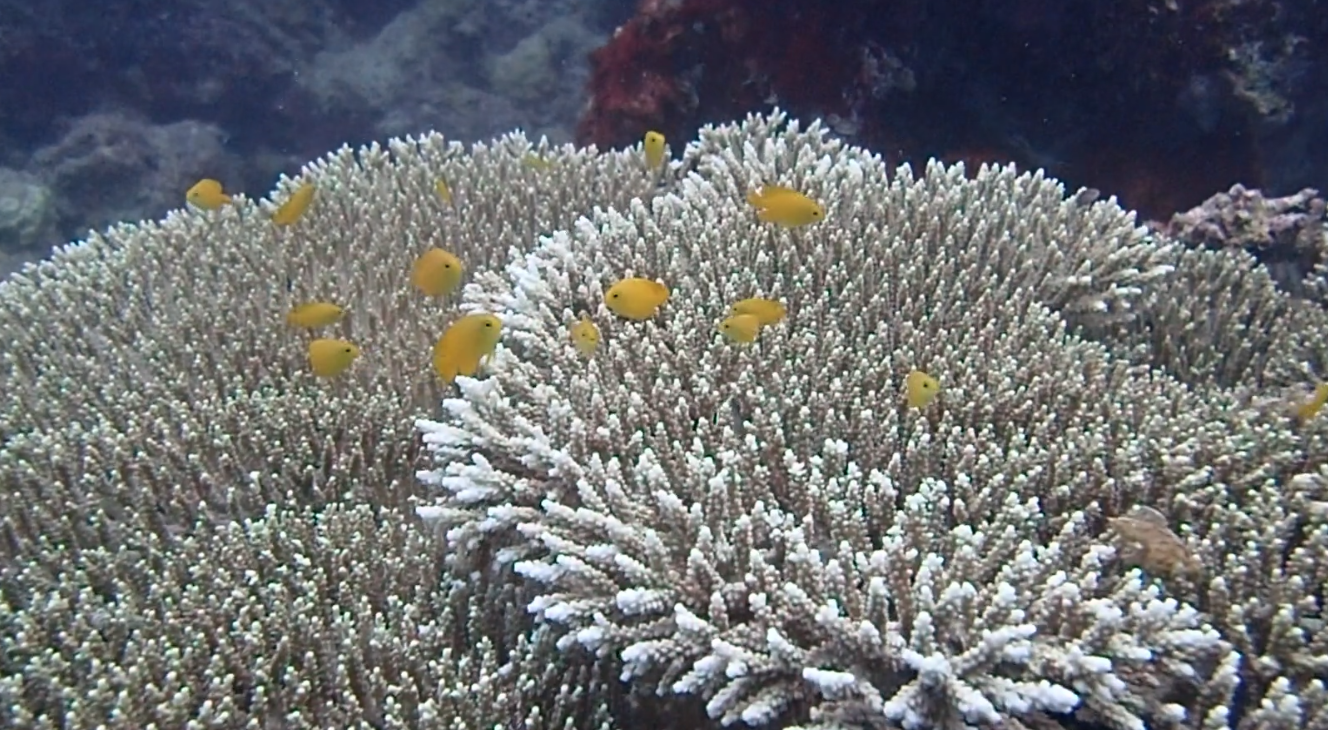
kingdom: Animalia
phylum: Chordata
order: Perciformes
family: Pomacentridae
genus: Pomacentrus
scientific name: Pomacentrus moluccensis
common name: Lemon damsel
